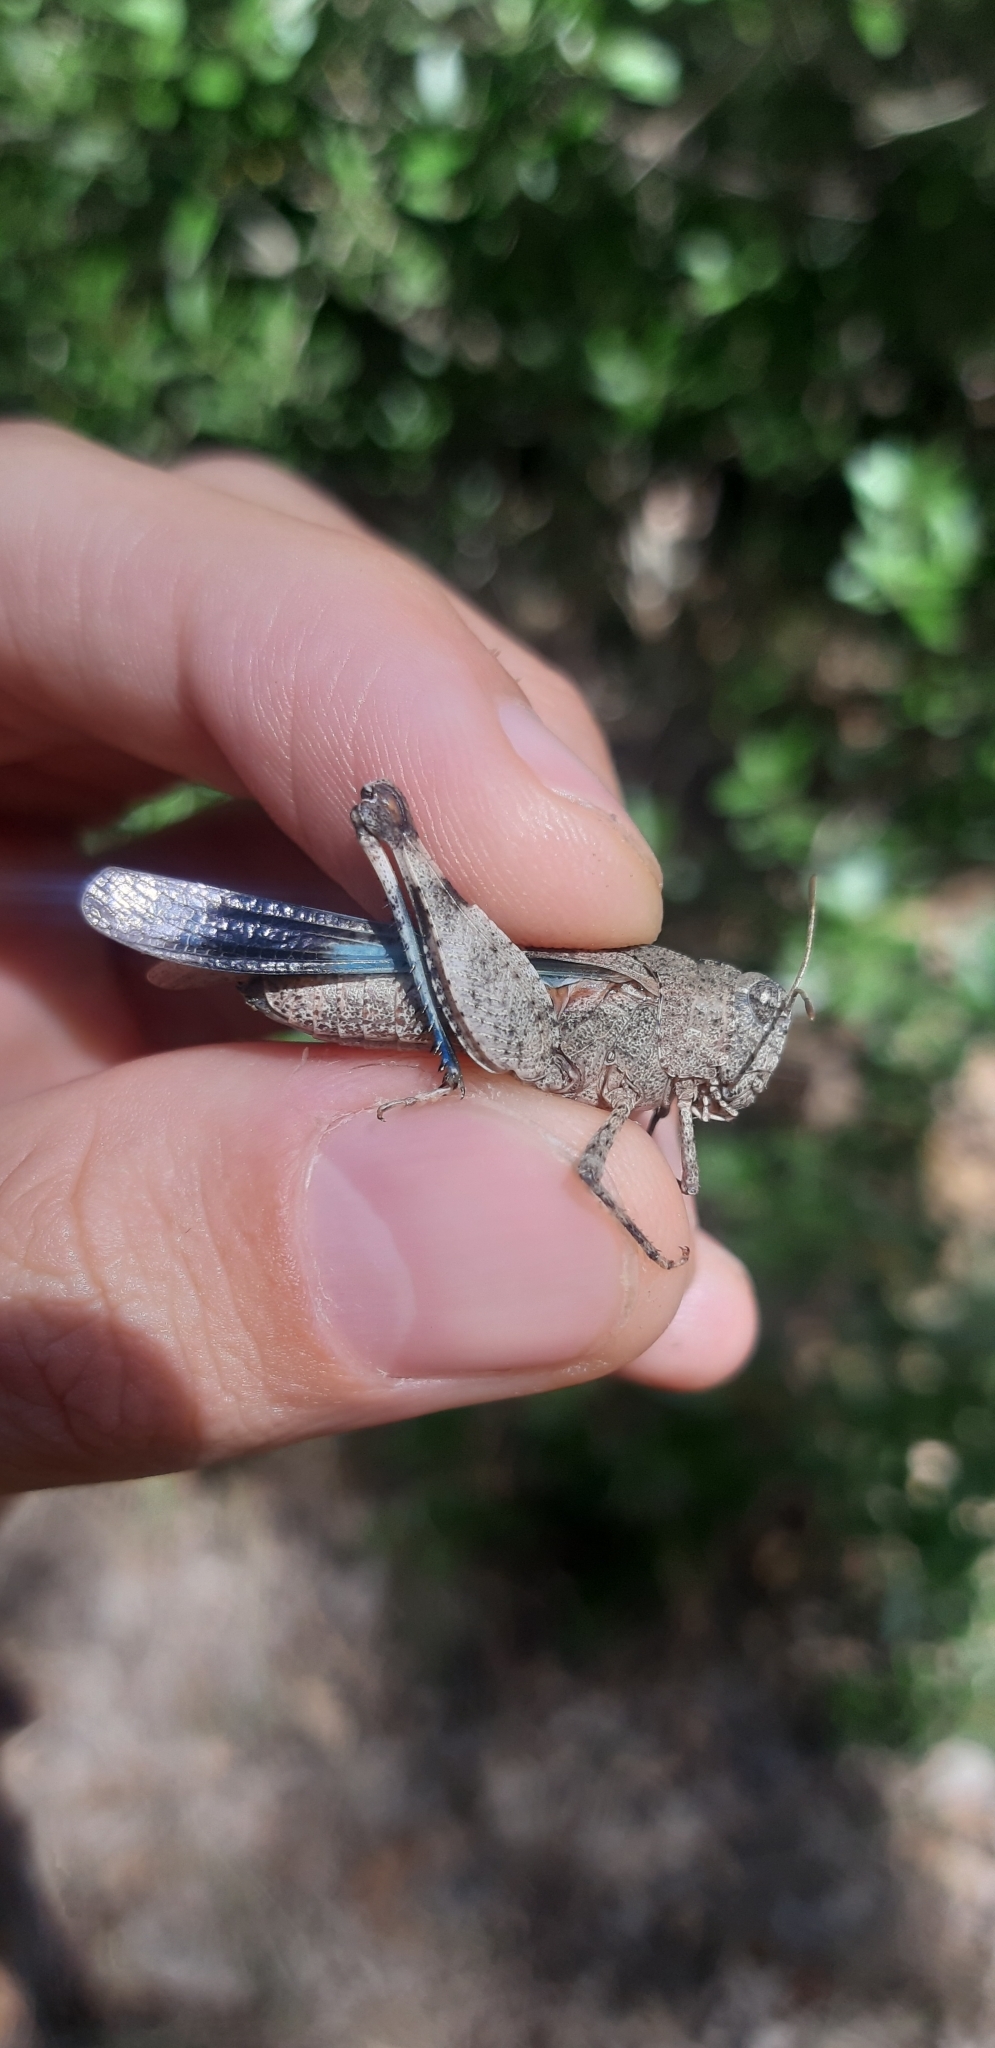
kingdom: Animalia
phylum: Arthropoda
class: Insecta
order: Orthoptera
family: Acrididae
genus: Oedipoda
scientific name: Oedipoda caerulescens
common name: Blue-winged grasshopper
